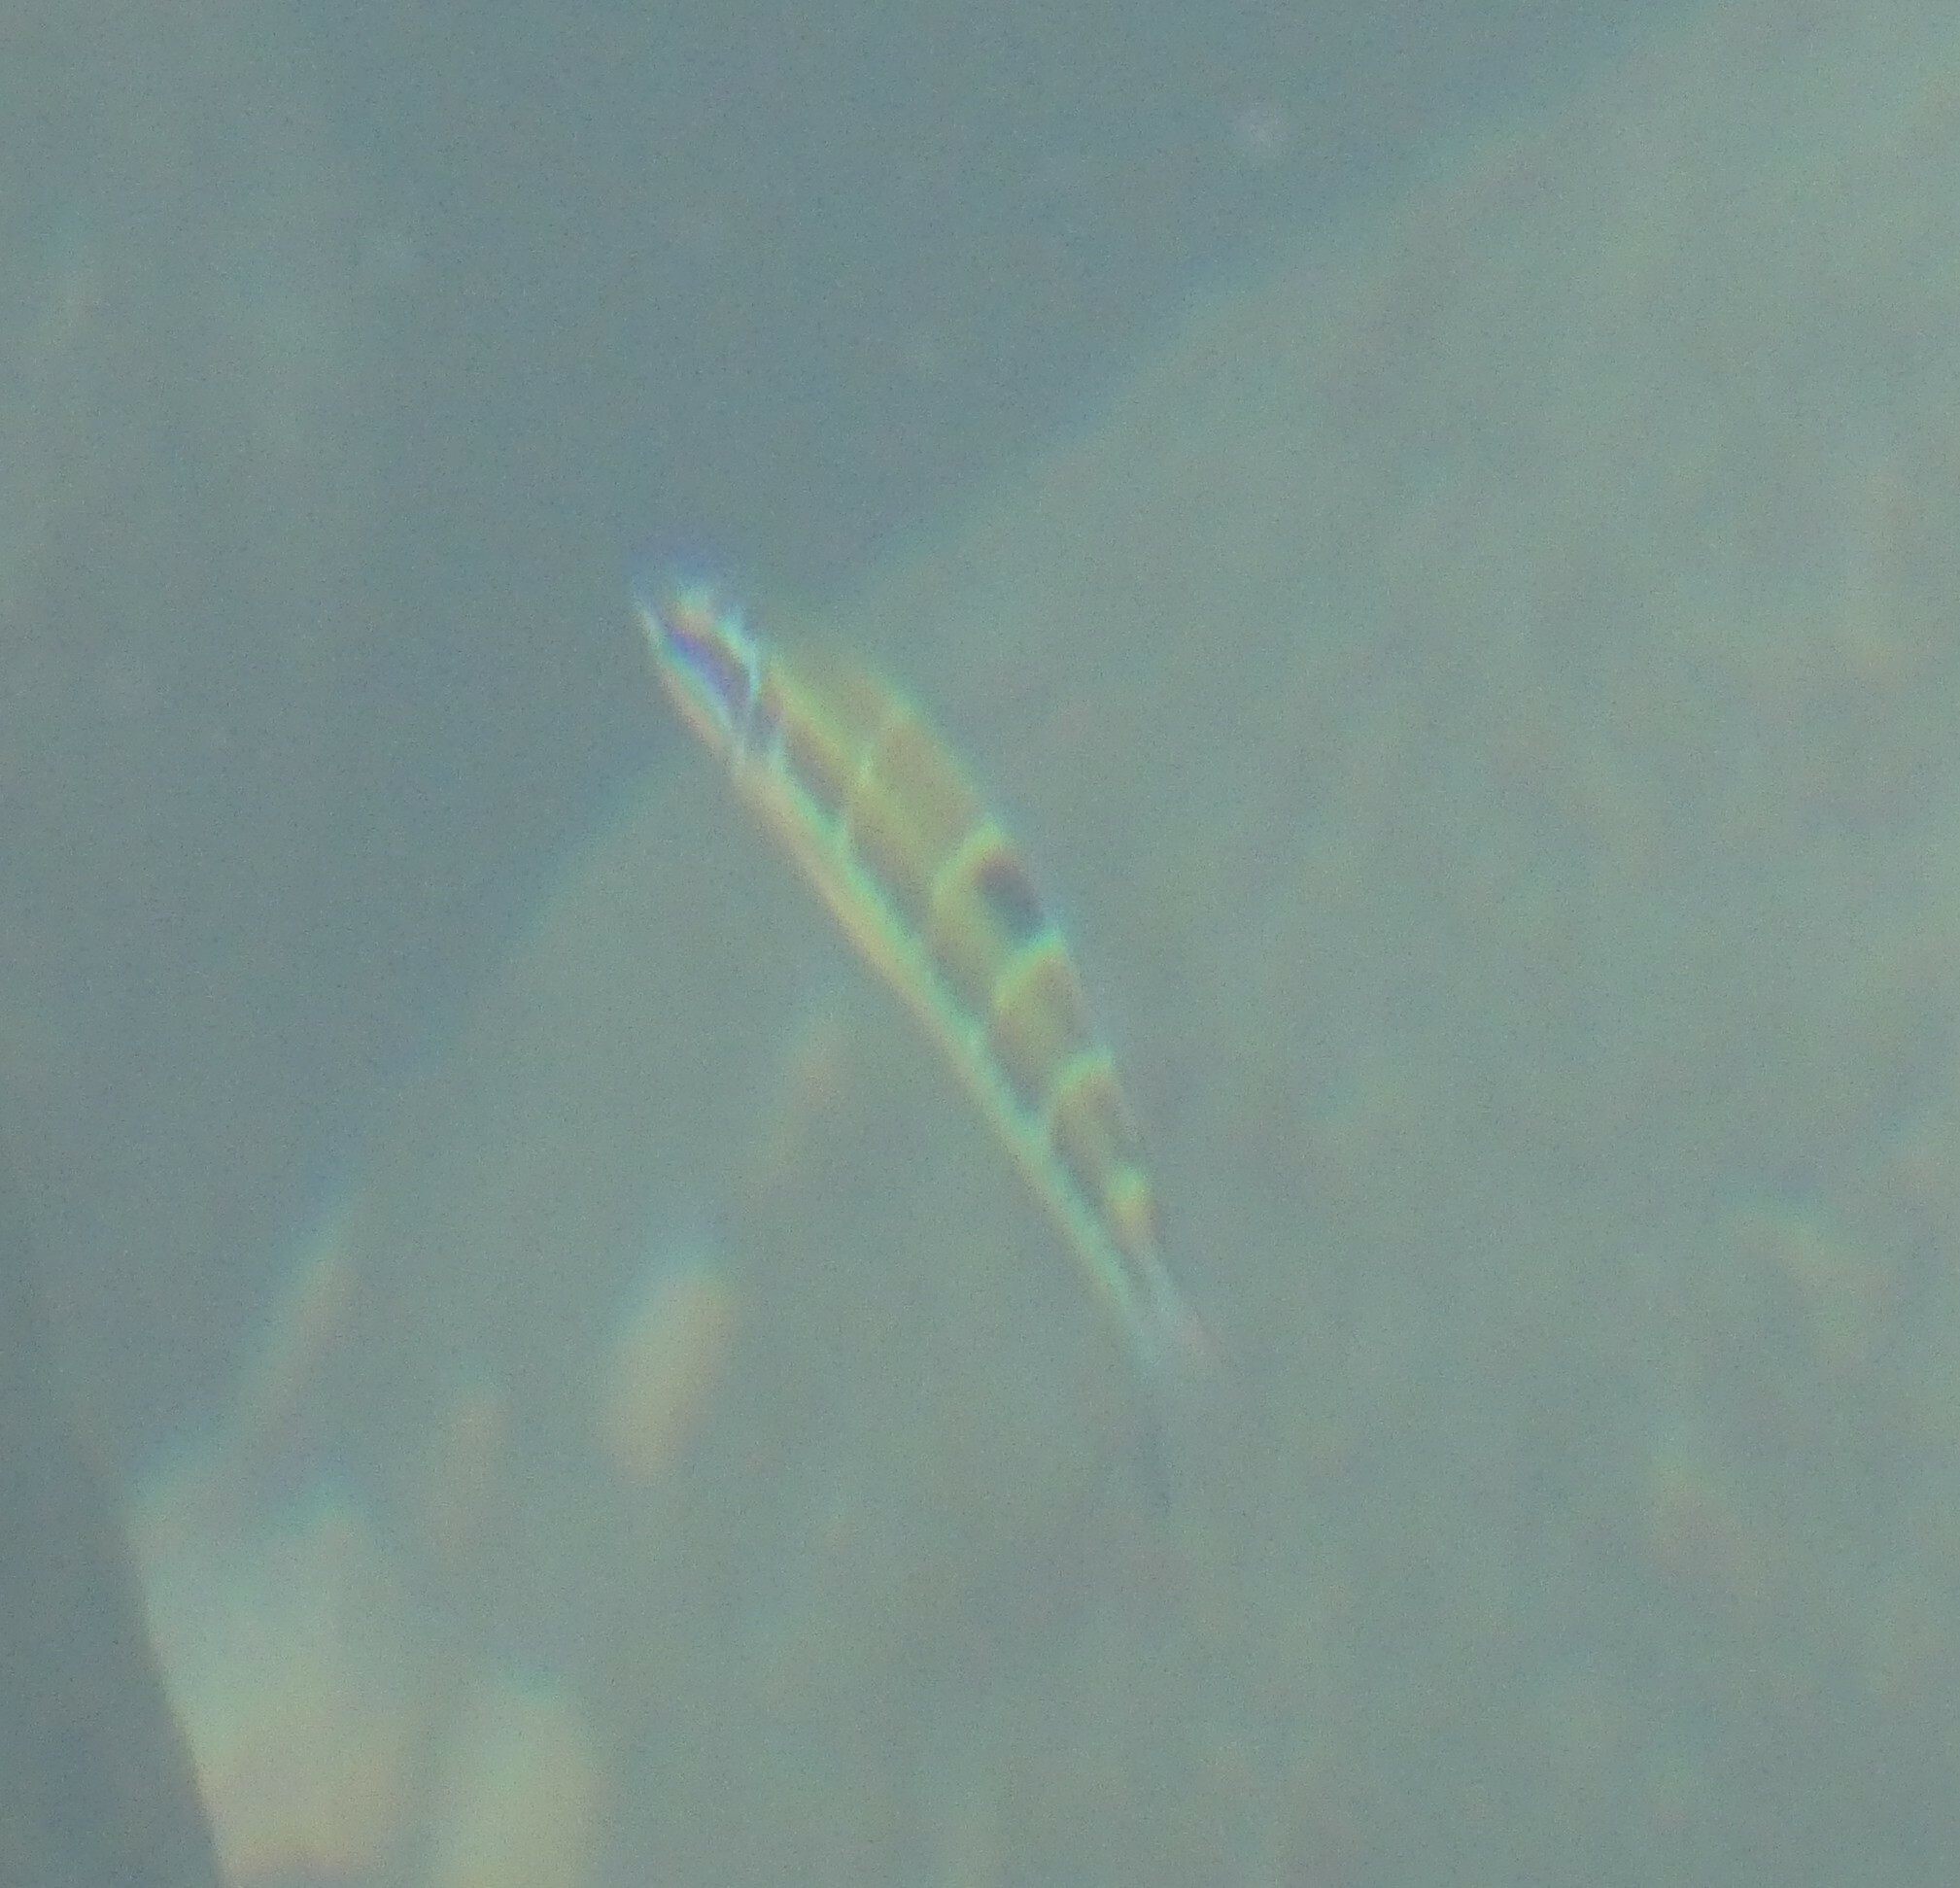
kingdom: Animalia
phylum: Chordata
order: Perciformes
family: Labridae
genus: Thalassoma
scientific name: Thalassoma pavo
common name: Ornate wrasse
